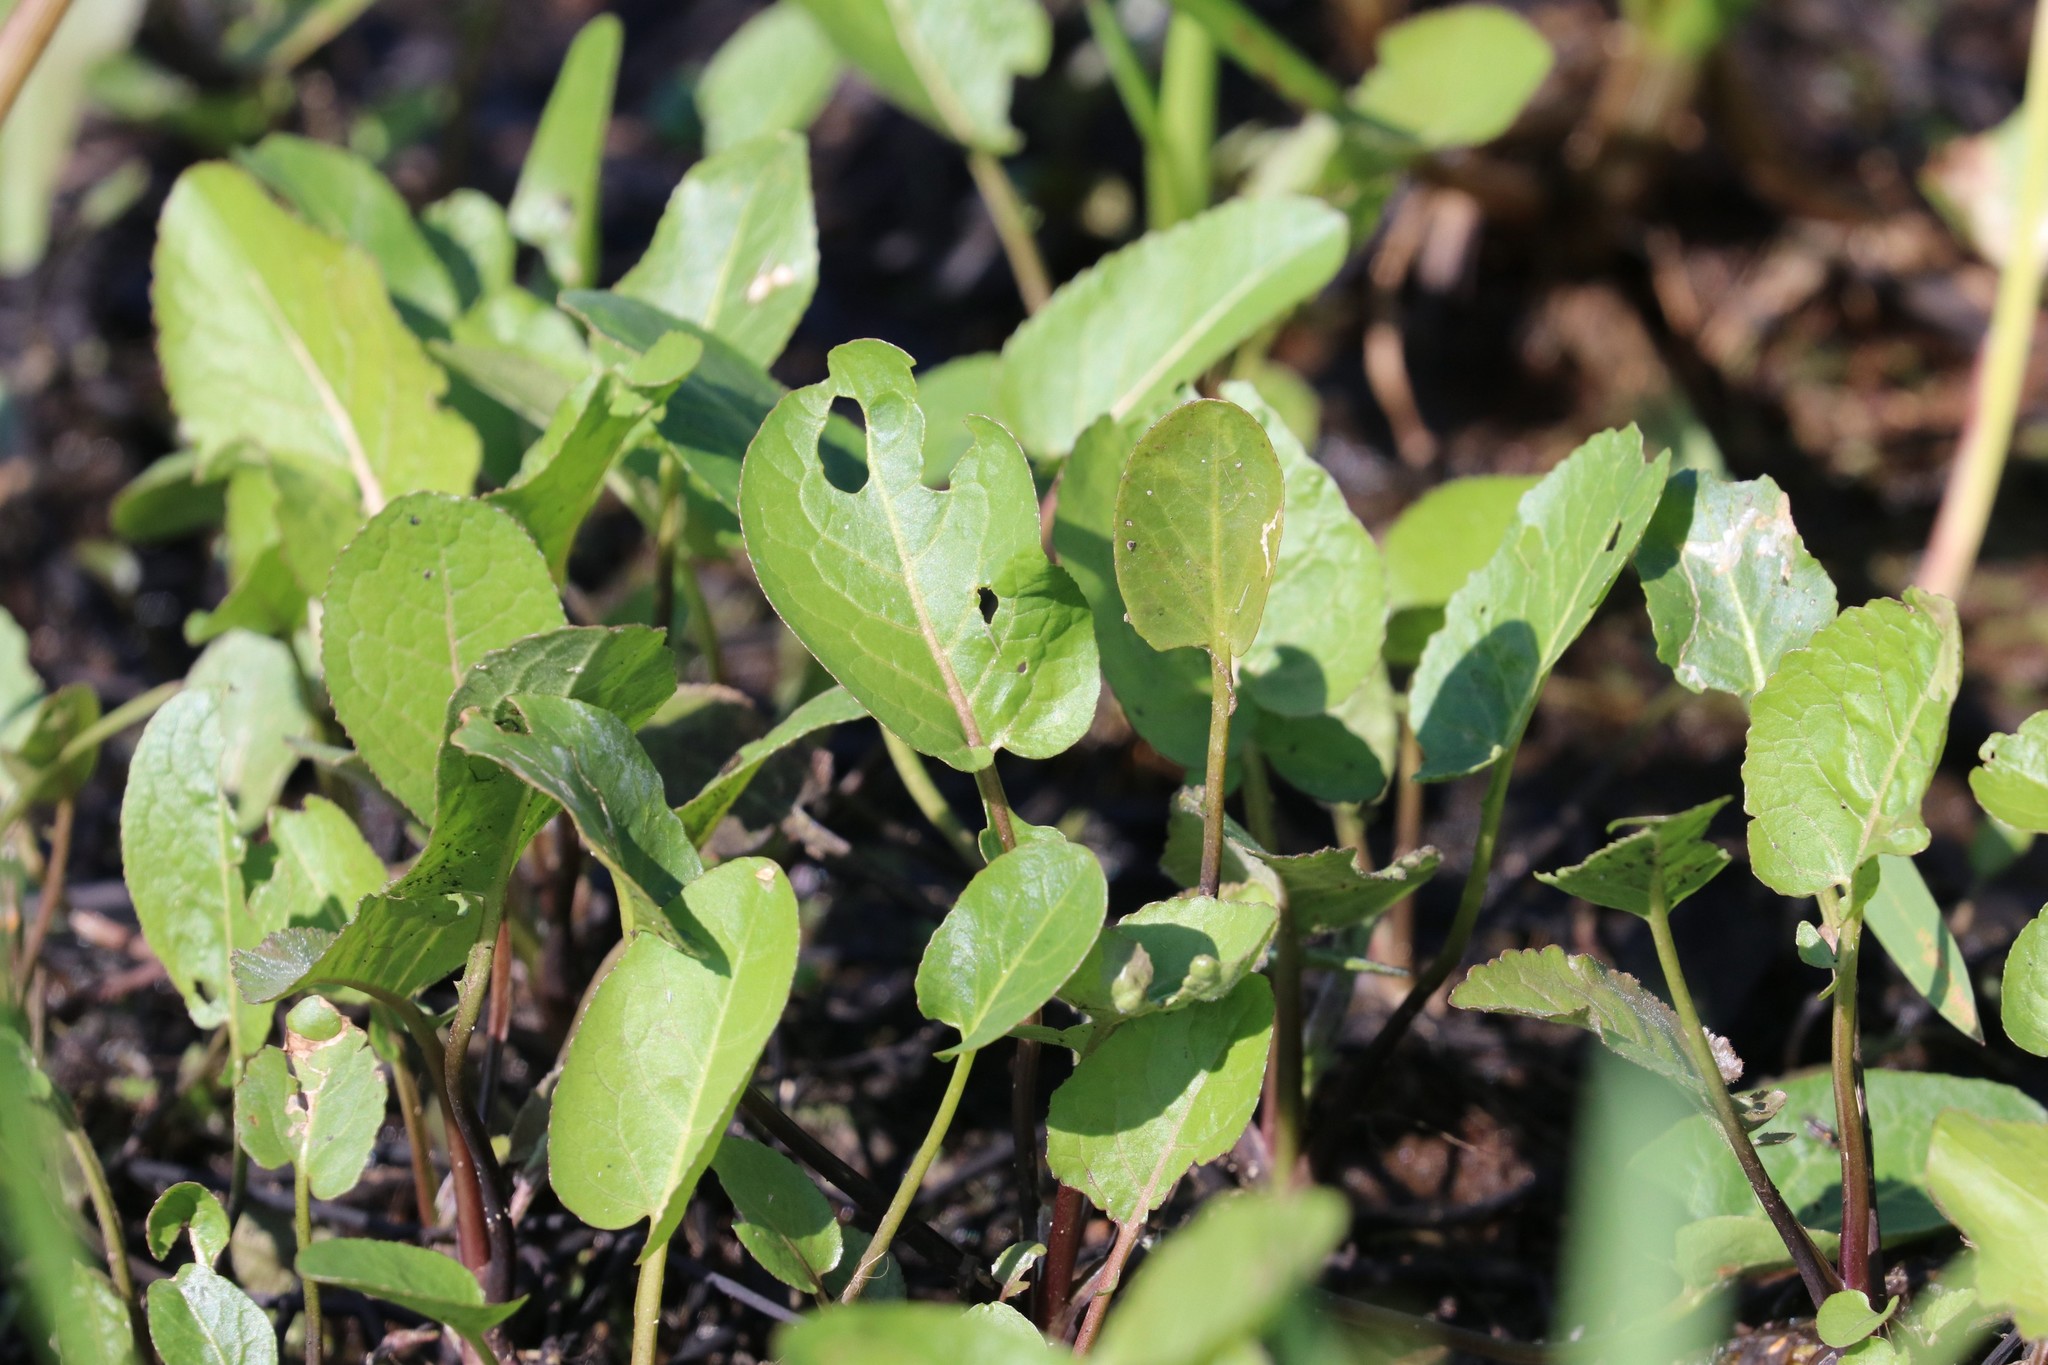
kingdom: Plantae
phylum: Tracheophyta
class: Magnoliopsida
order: Brassicales
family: Brassicaceae
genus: Rorippa
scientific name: Rorippa amphibia
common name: Great yellow-cress
